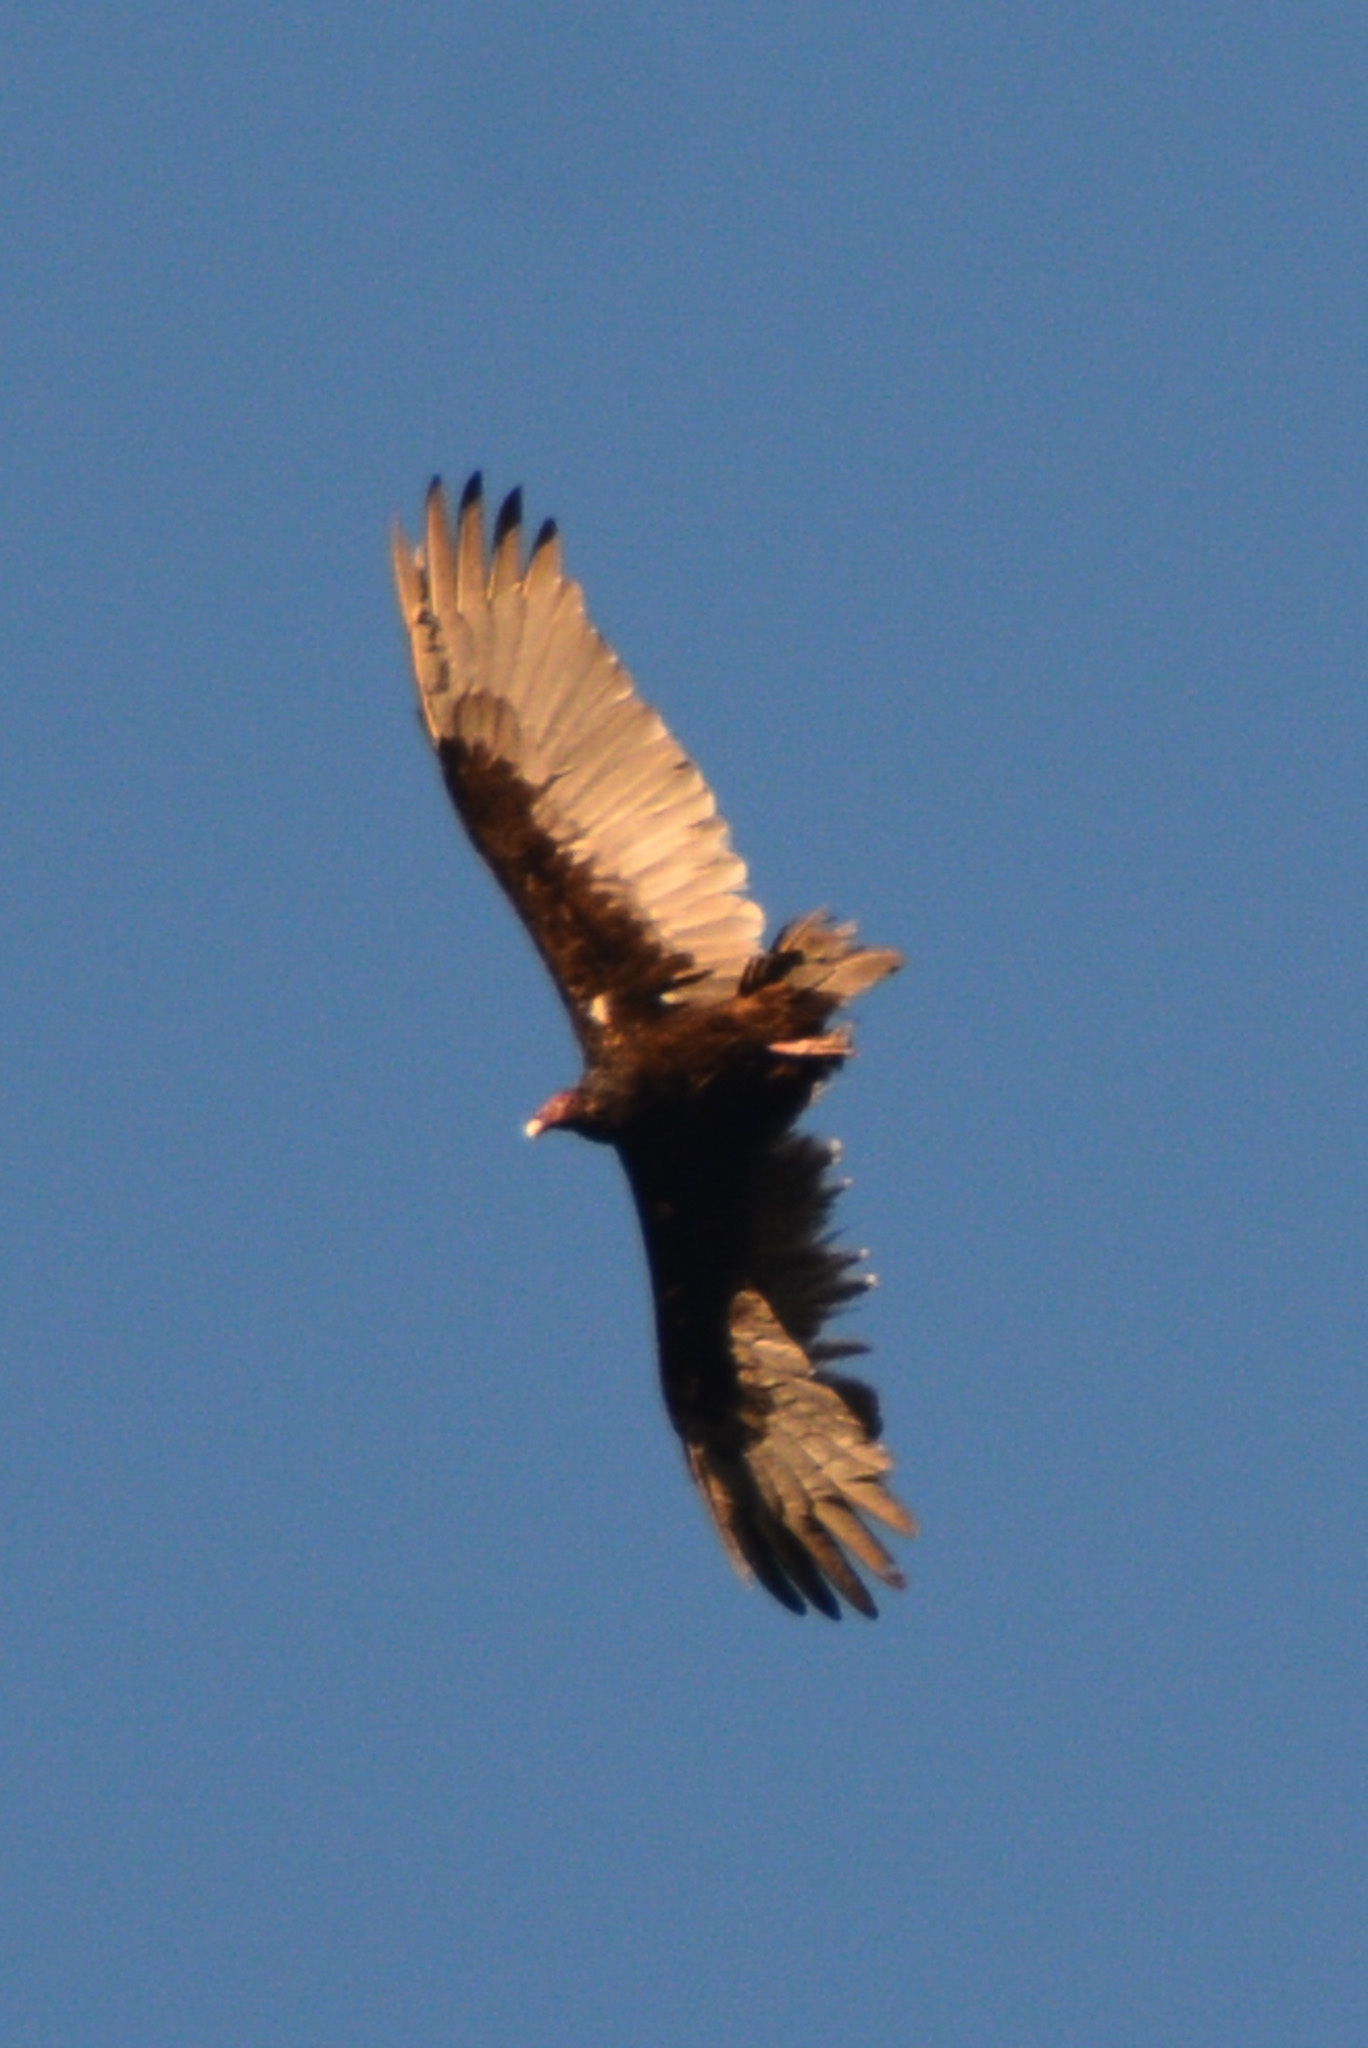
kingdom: Animalia
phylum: Chordata
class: Aves
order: Accipitriformes
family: Cathartidae
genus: Cathartes
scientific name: Cathartes aura
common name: Turkey vulture
